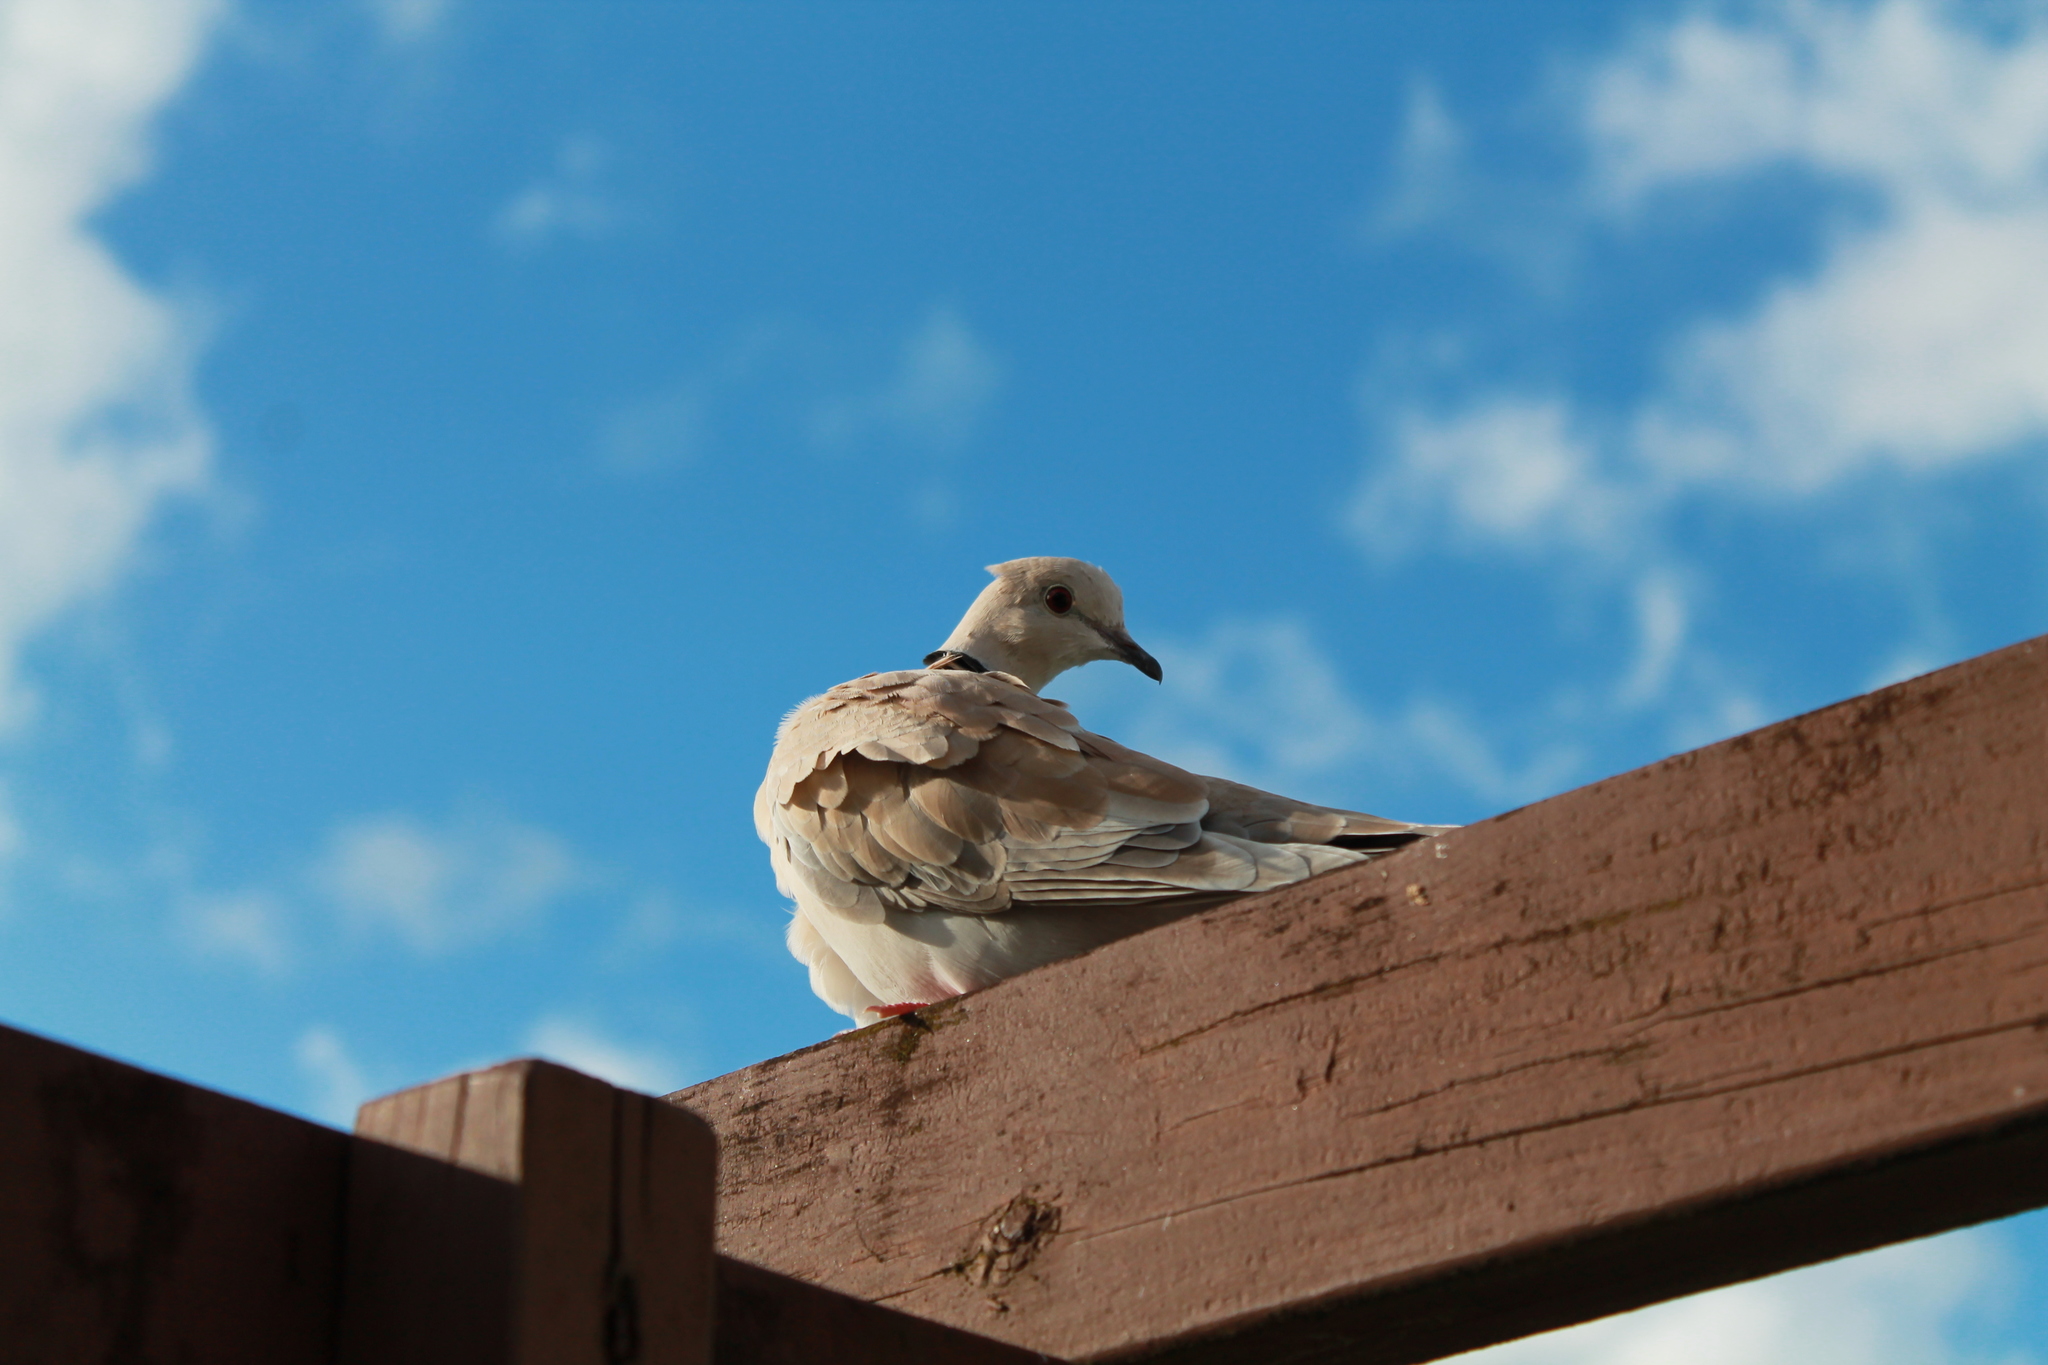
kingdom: Animalia
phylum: Chordata
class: Aves
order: Columbiformes
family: Columbidae
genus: Streptopelia
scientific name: Streptopelia roseogrisea
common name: African collared dove
